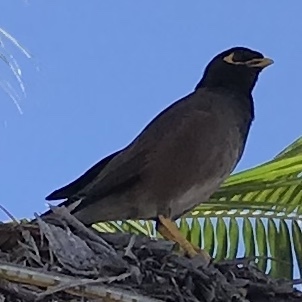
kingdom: Animalia
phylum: Chordata
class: Aves
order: Passeriformes
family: Sturnidae
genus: Acridotheres
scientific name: Acridotheres tristis
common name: Common myna
